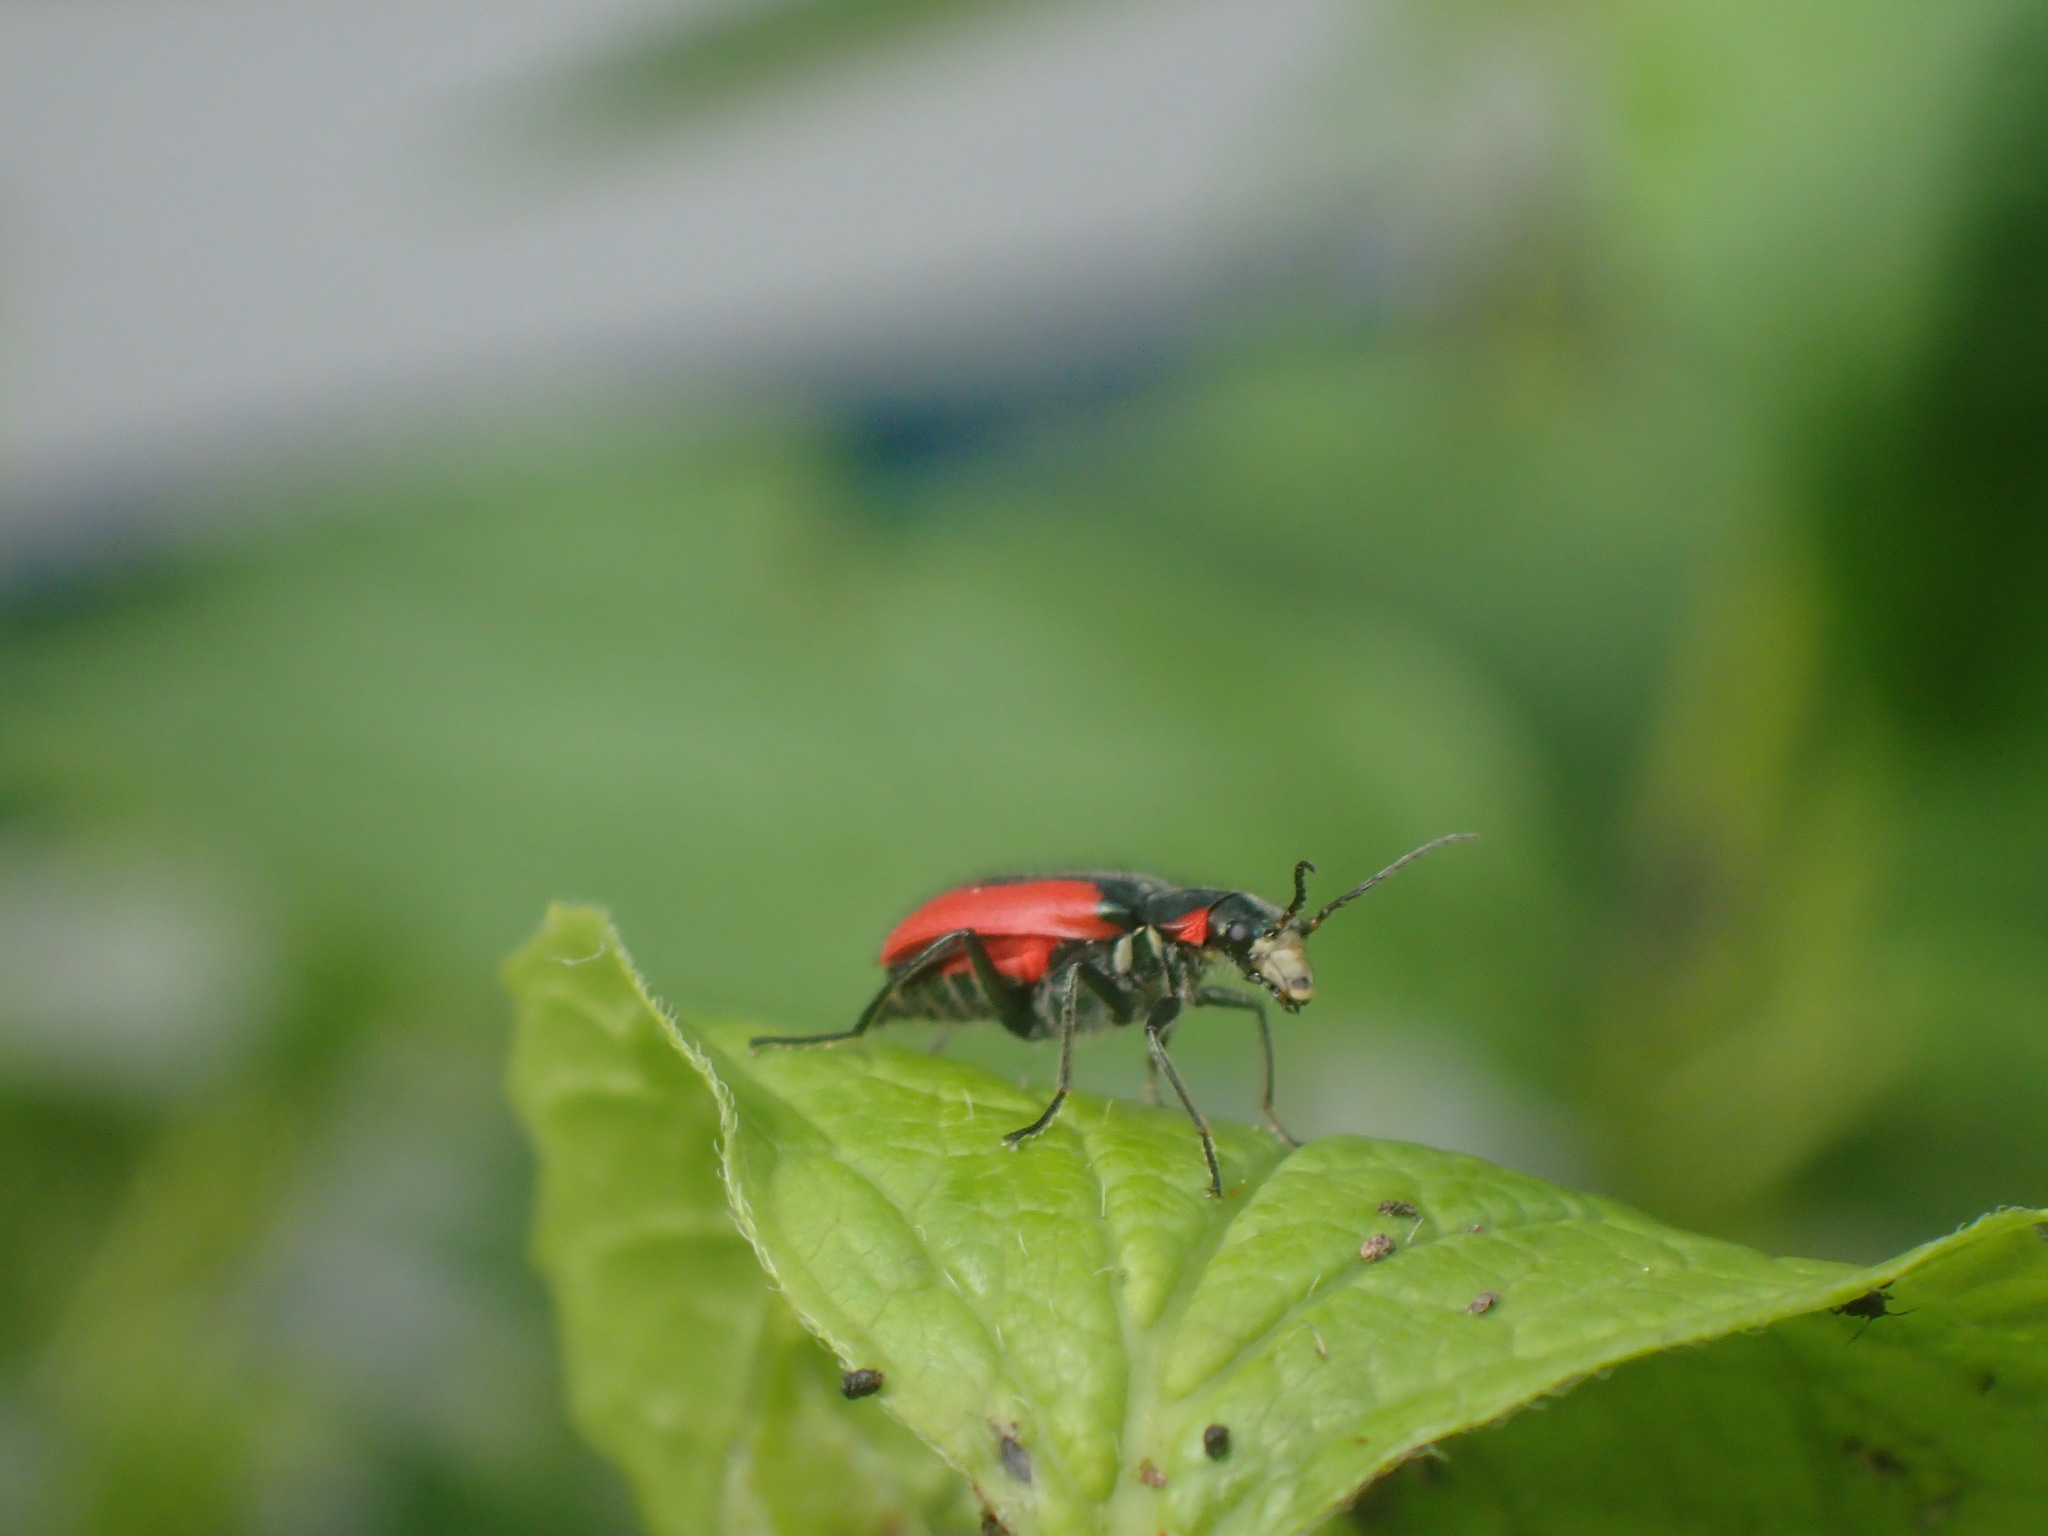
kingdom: Animalia
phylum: Arthropoda
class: Insecta
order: Coleoptera
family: Melyridae
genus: Malachius
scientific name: Malachius aeneus
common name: Scarlet malachite beetle
